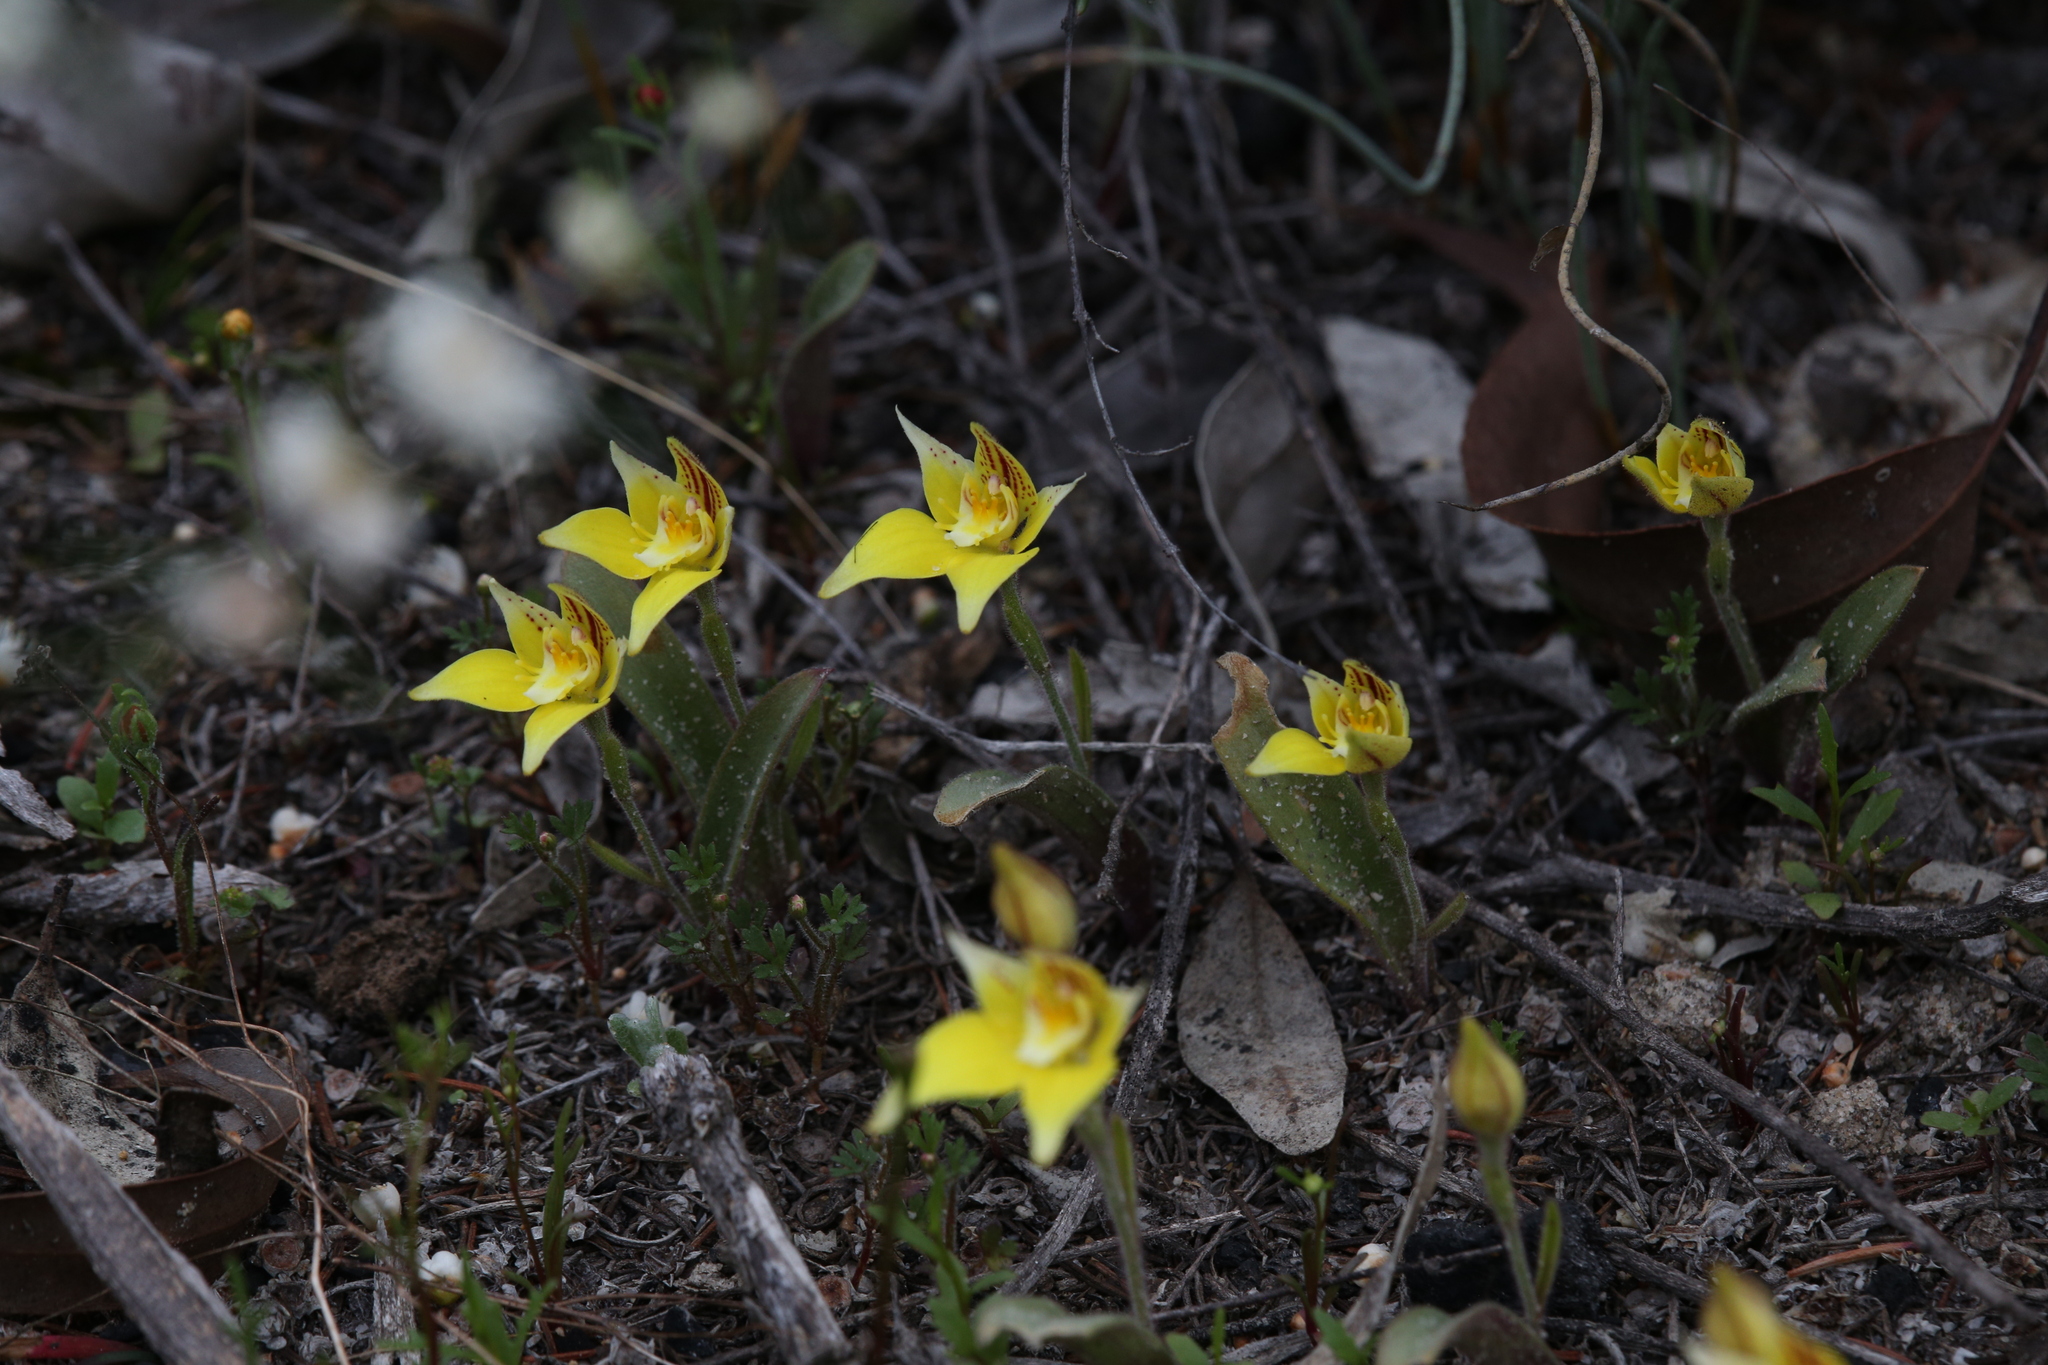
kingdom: Plantae
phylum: Tracheophyta
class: Liliopsida
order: Asparagales
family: Orchidaceae
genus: Caladenia
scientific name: Caladenia flava
